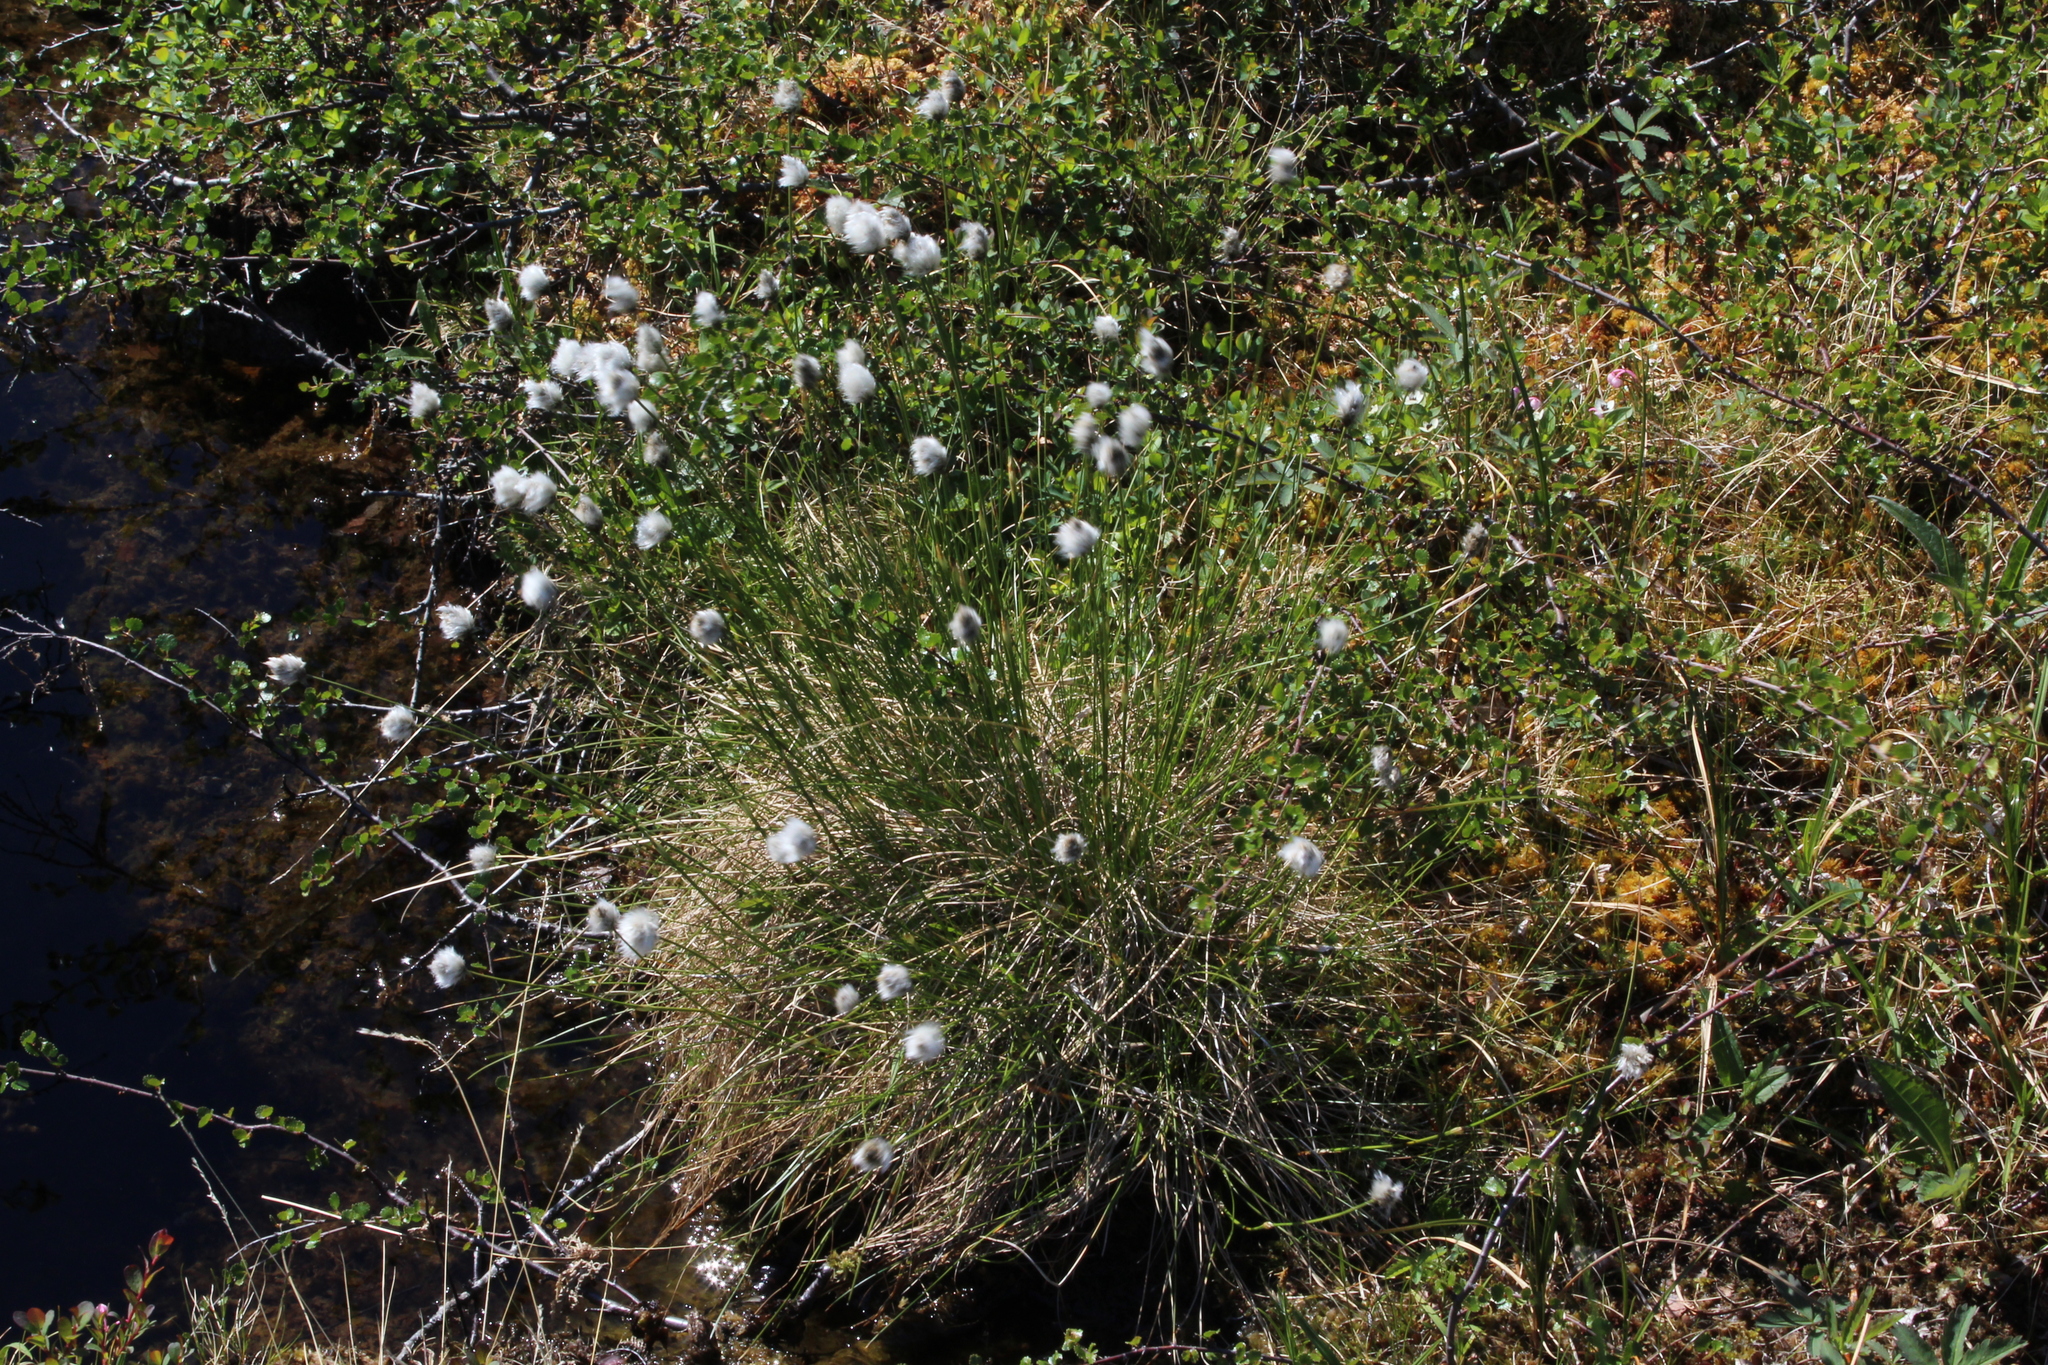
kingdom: Plantae
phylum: Tracheophyta
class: Liliopsida
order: Poales
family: Cyperaceae
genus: Eriophorum
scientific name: Eriophorum vaginatum
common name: Hare's-tail cottongrass
